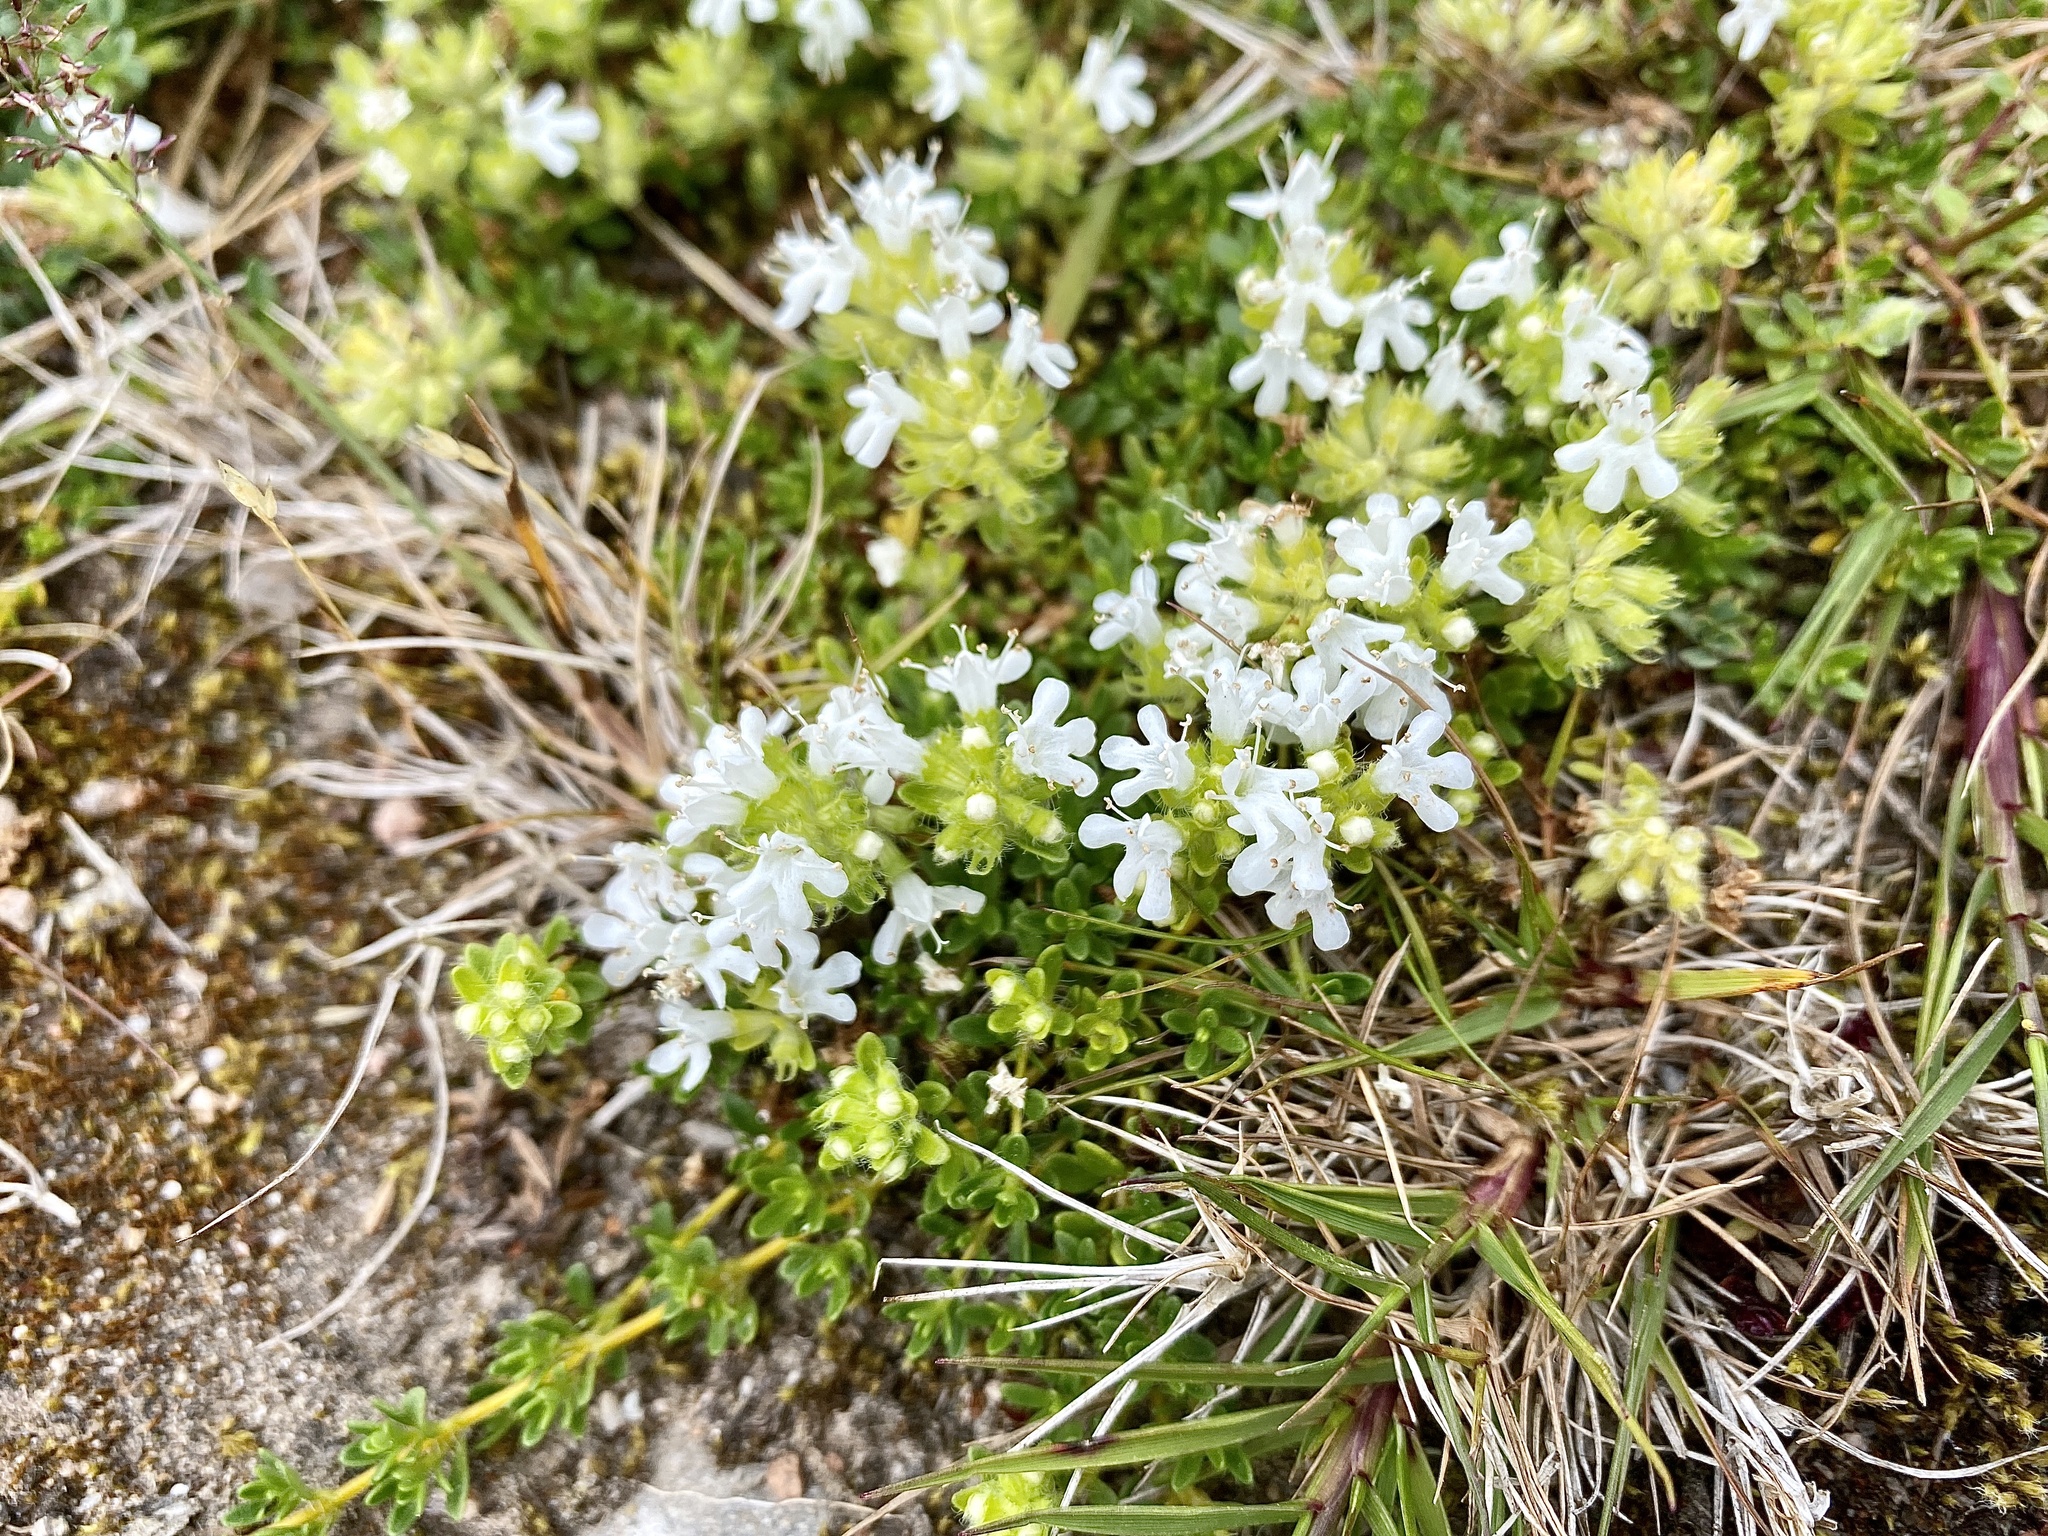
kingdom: Plantae
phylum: Tracheophyta
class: Magnoliopsida
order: Lamiales
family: Lamiaceae
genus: Thymus
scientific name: Thymus praecox
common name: Wild thyme
